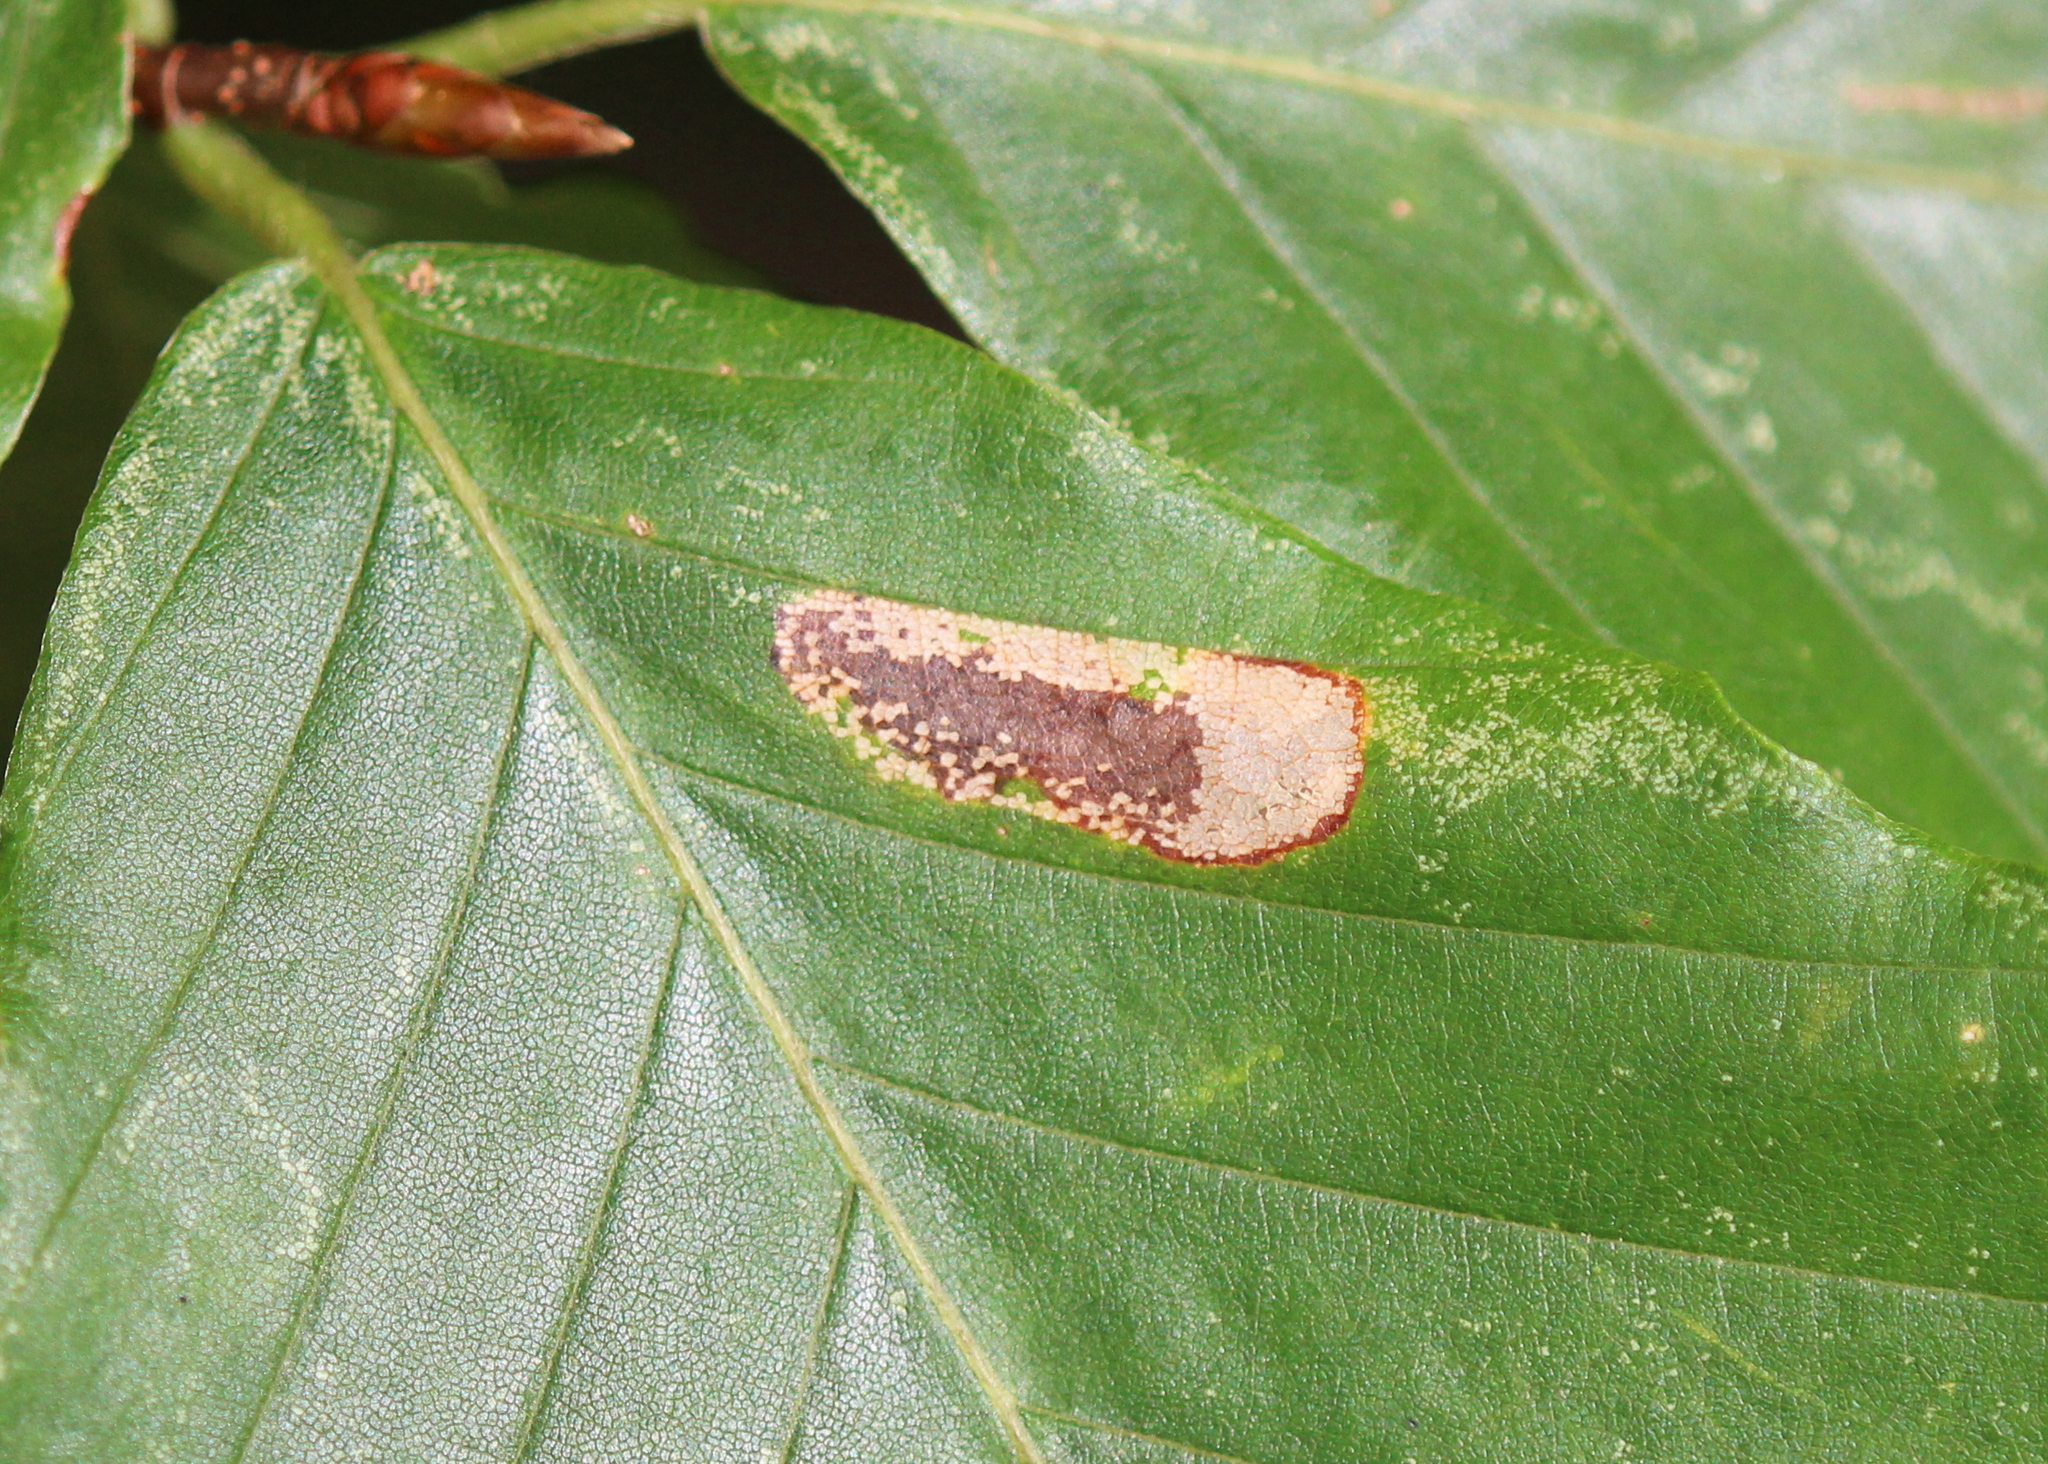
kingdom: Animalia
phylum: Arthropoda
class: Insecta
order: Lepidoptera
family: Gracillariidae
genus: Phyllonorycter
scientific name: Phyllonorycter maestingella
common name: Beech midget
